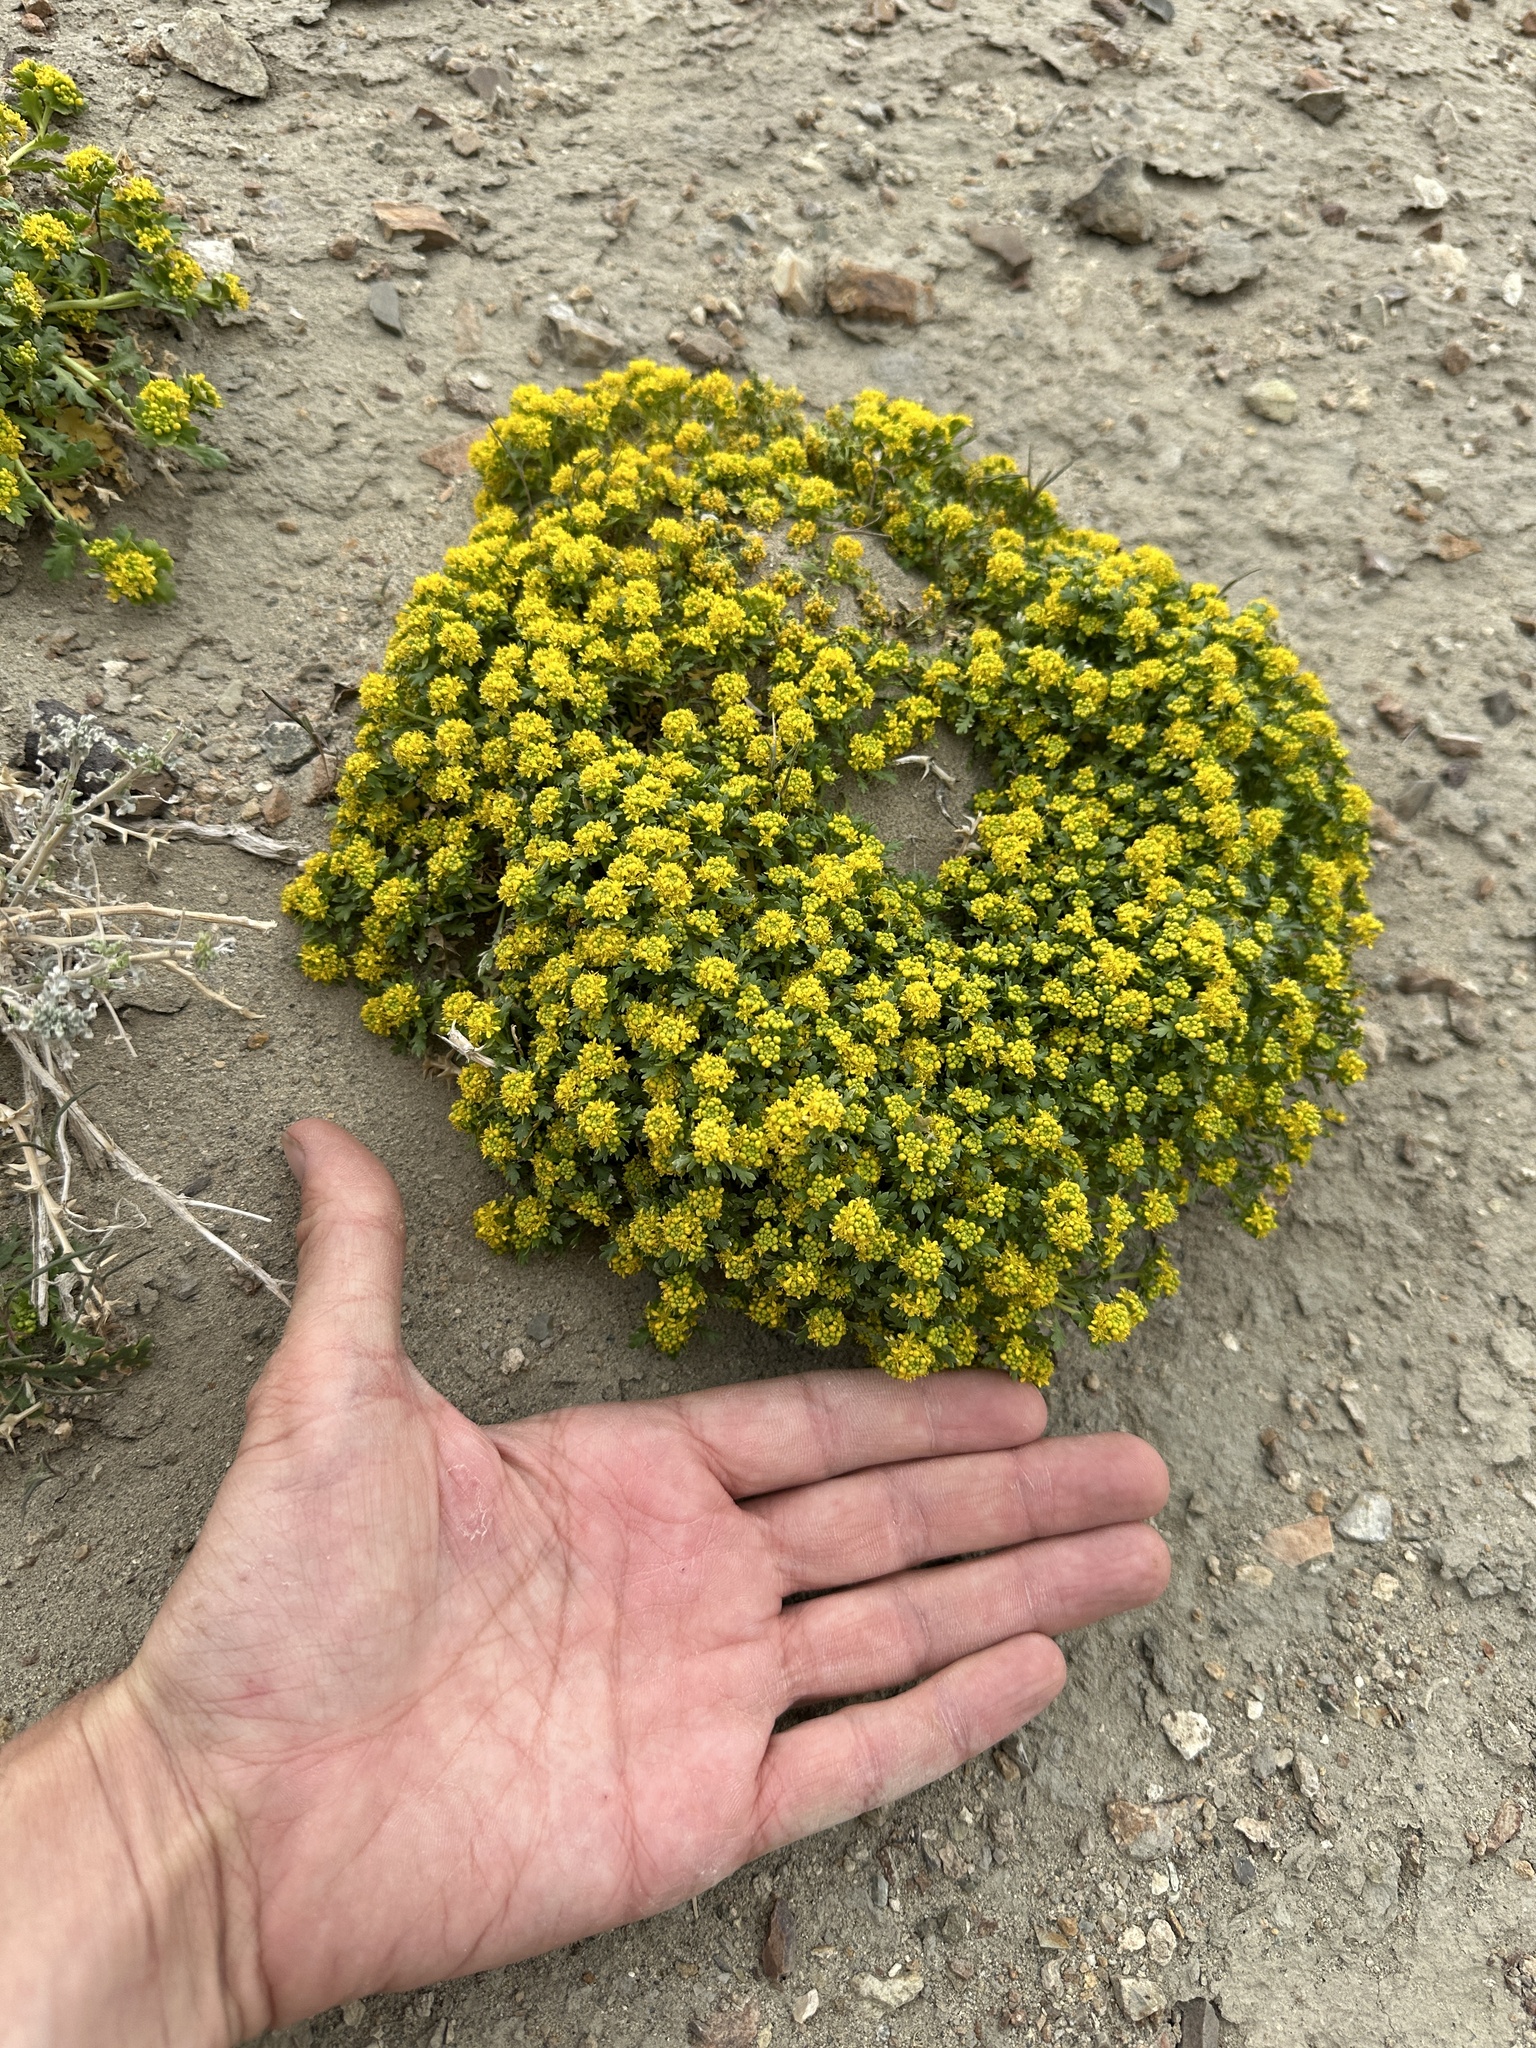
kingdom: Plantae
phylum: Tracheophyta
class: Magnoliopsida
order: Brassicales
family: Brassicaceae
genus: Lepidium
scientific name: Lepidium flavum
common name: Yellow pepperwort
